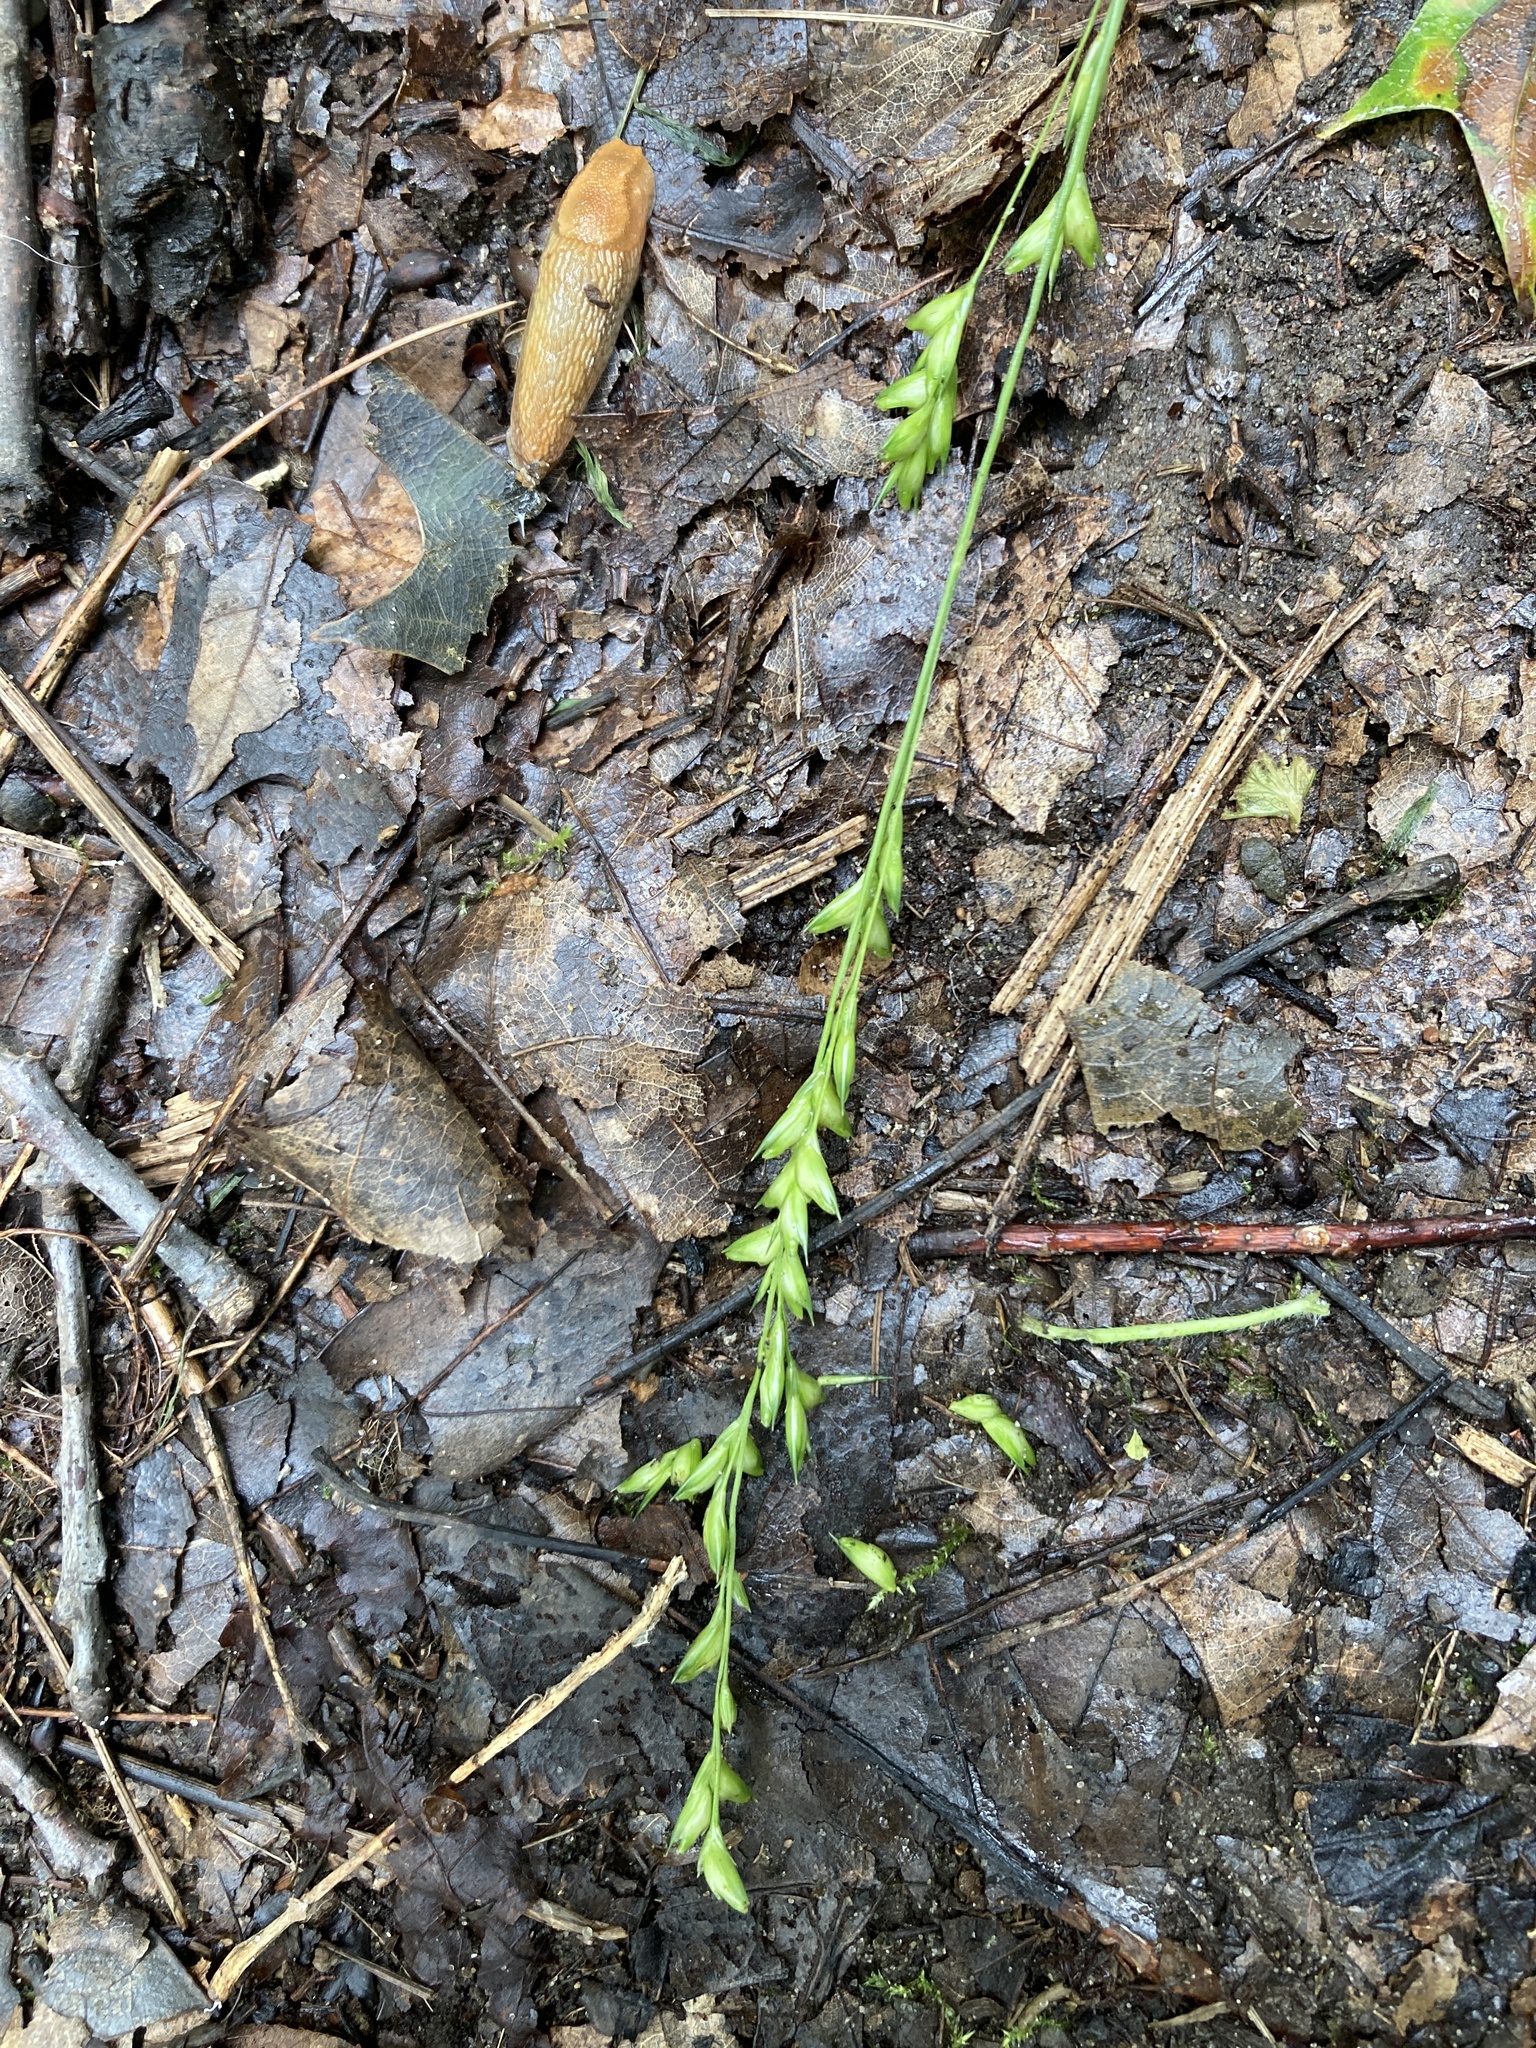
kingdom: Plantae
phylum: Tracheophyta
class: Liliopsida
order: Poales
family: Poaceae
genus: Diarrhena
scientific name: Diarrhena obovata
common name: Beakgrass
